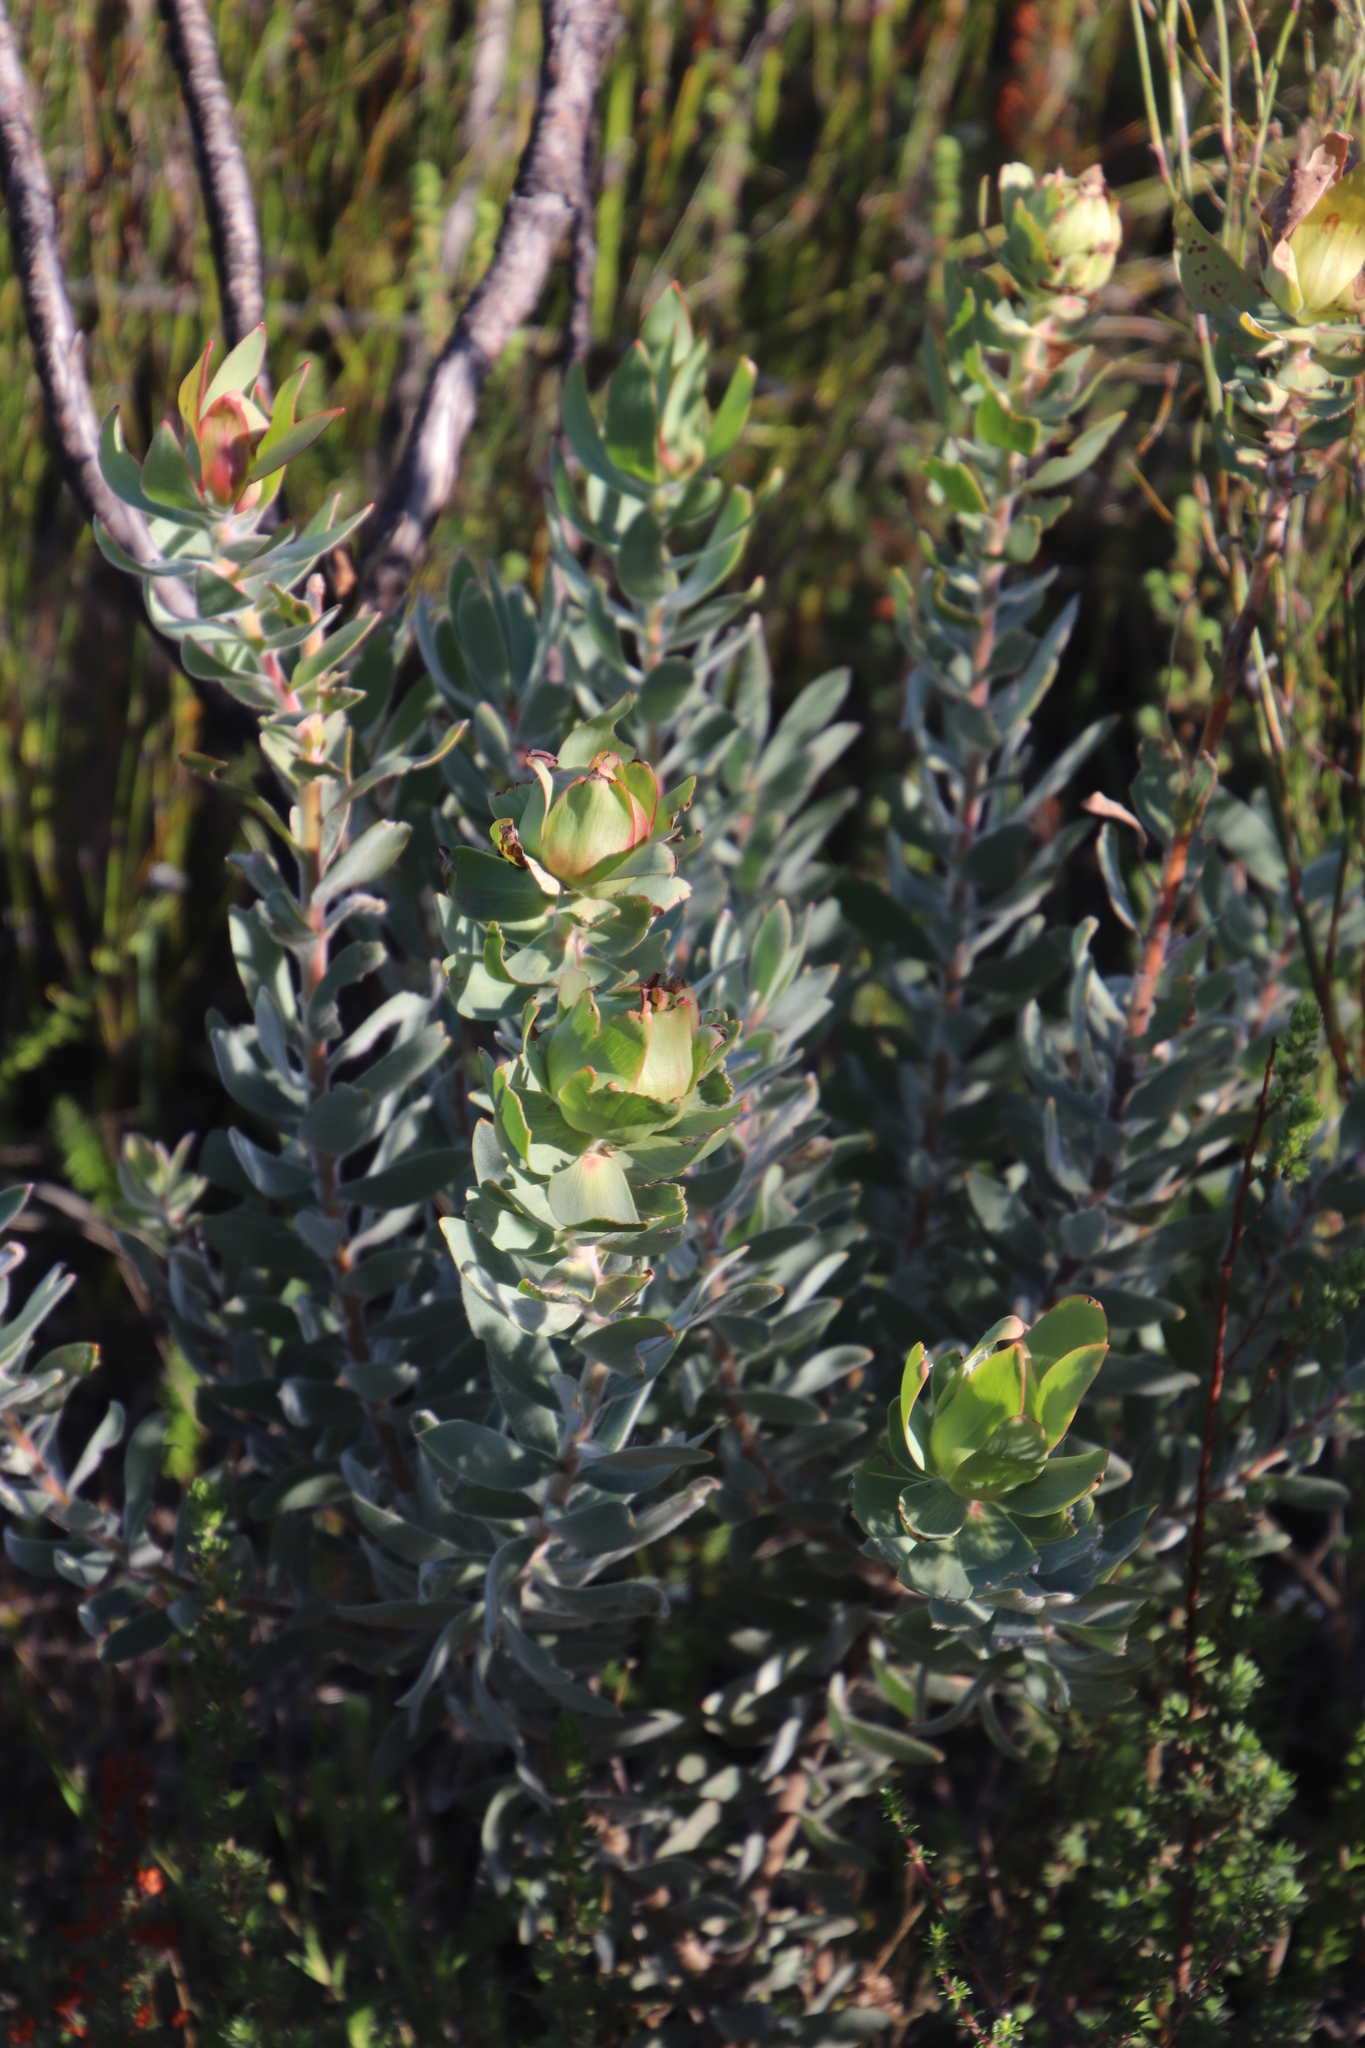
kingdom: Plantae
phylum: Tracheophyta
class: Magnoliopsida
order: Proteales
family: Proteaceae
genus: Leucadendron
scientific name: Leucadendron daphnoides
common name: Du toit's kloof conebush
